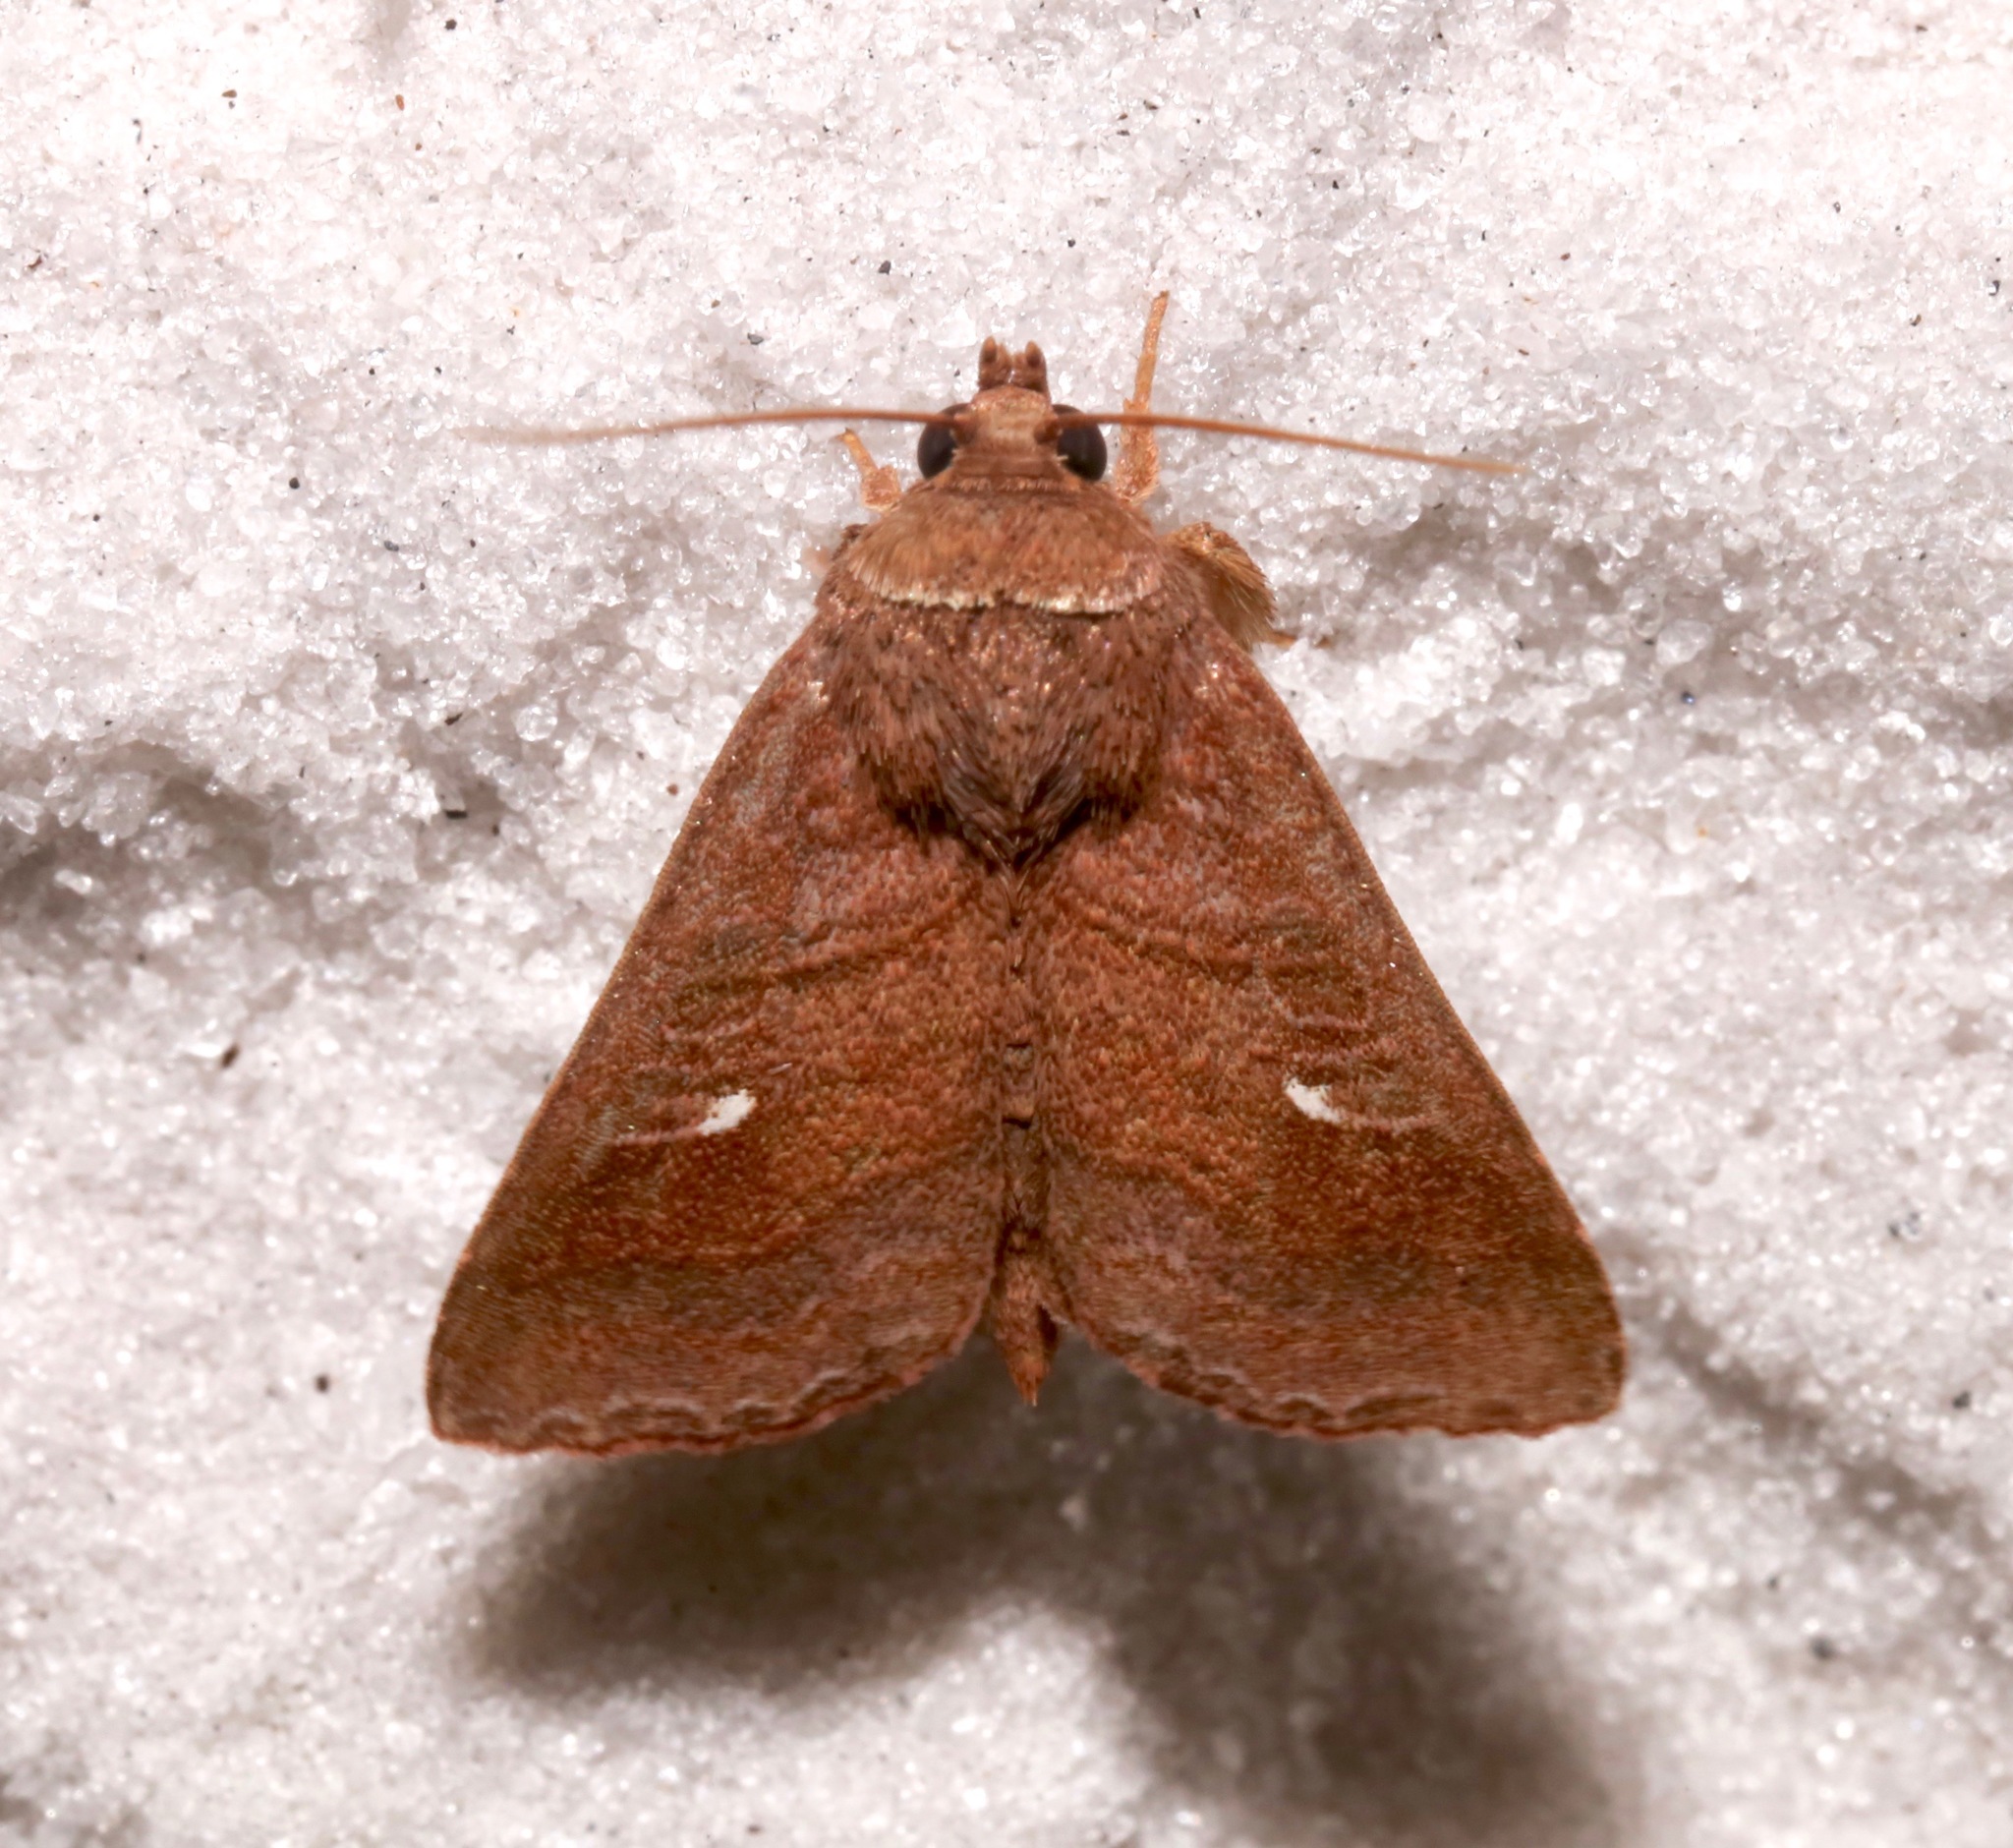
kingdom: Animalia
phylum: Arthropoda
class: Insecta
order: Lepidoptera
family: Noctuidae
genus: Phuphena
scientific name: Phuphena tura
